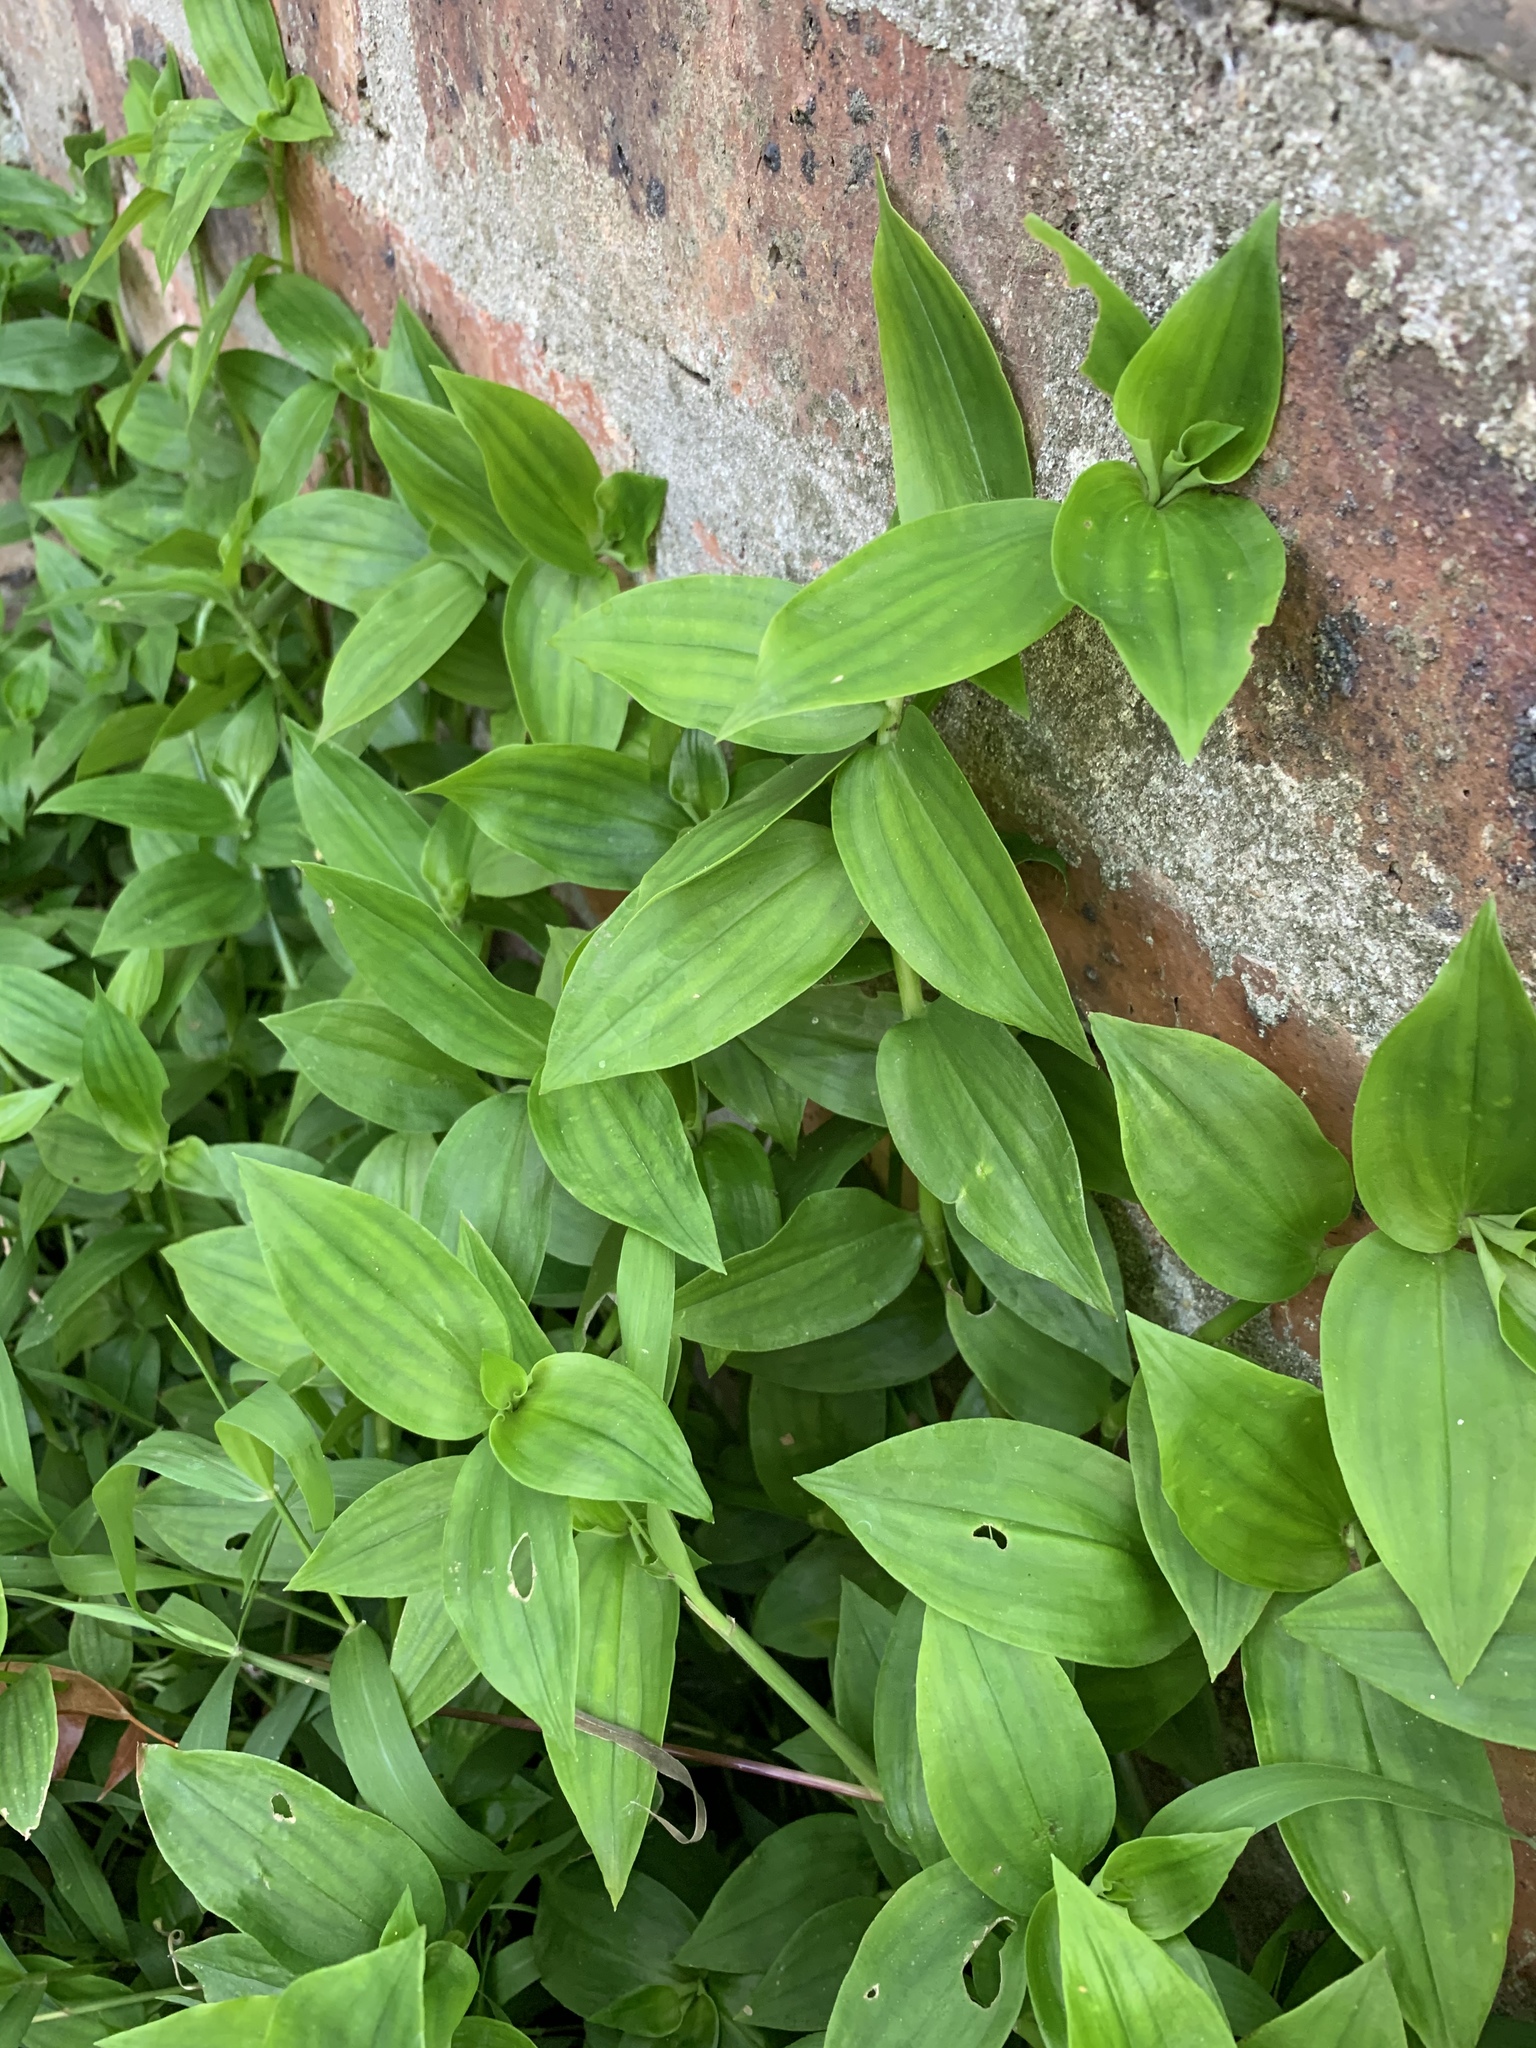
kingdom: Plantae
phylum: Tracheophyta
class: Liliopsida
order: Commelinales
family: Commelinaceae
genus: Tradescantia
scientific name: Tradescantia fluminensis
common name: Wandering-jew
